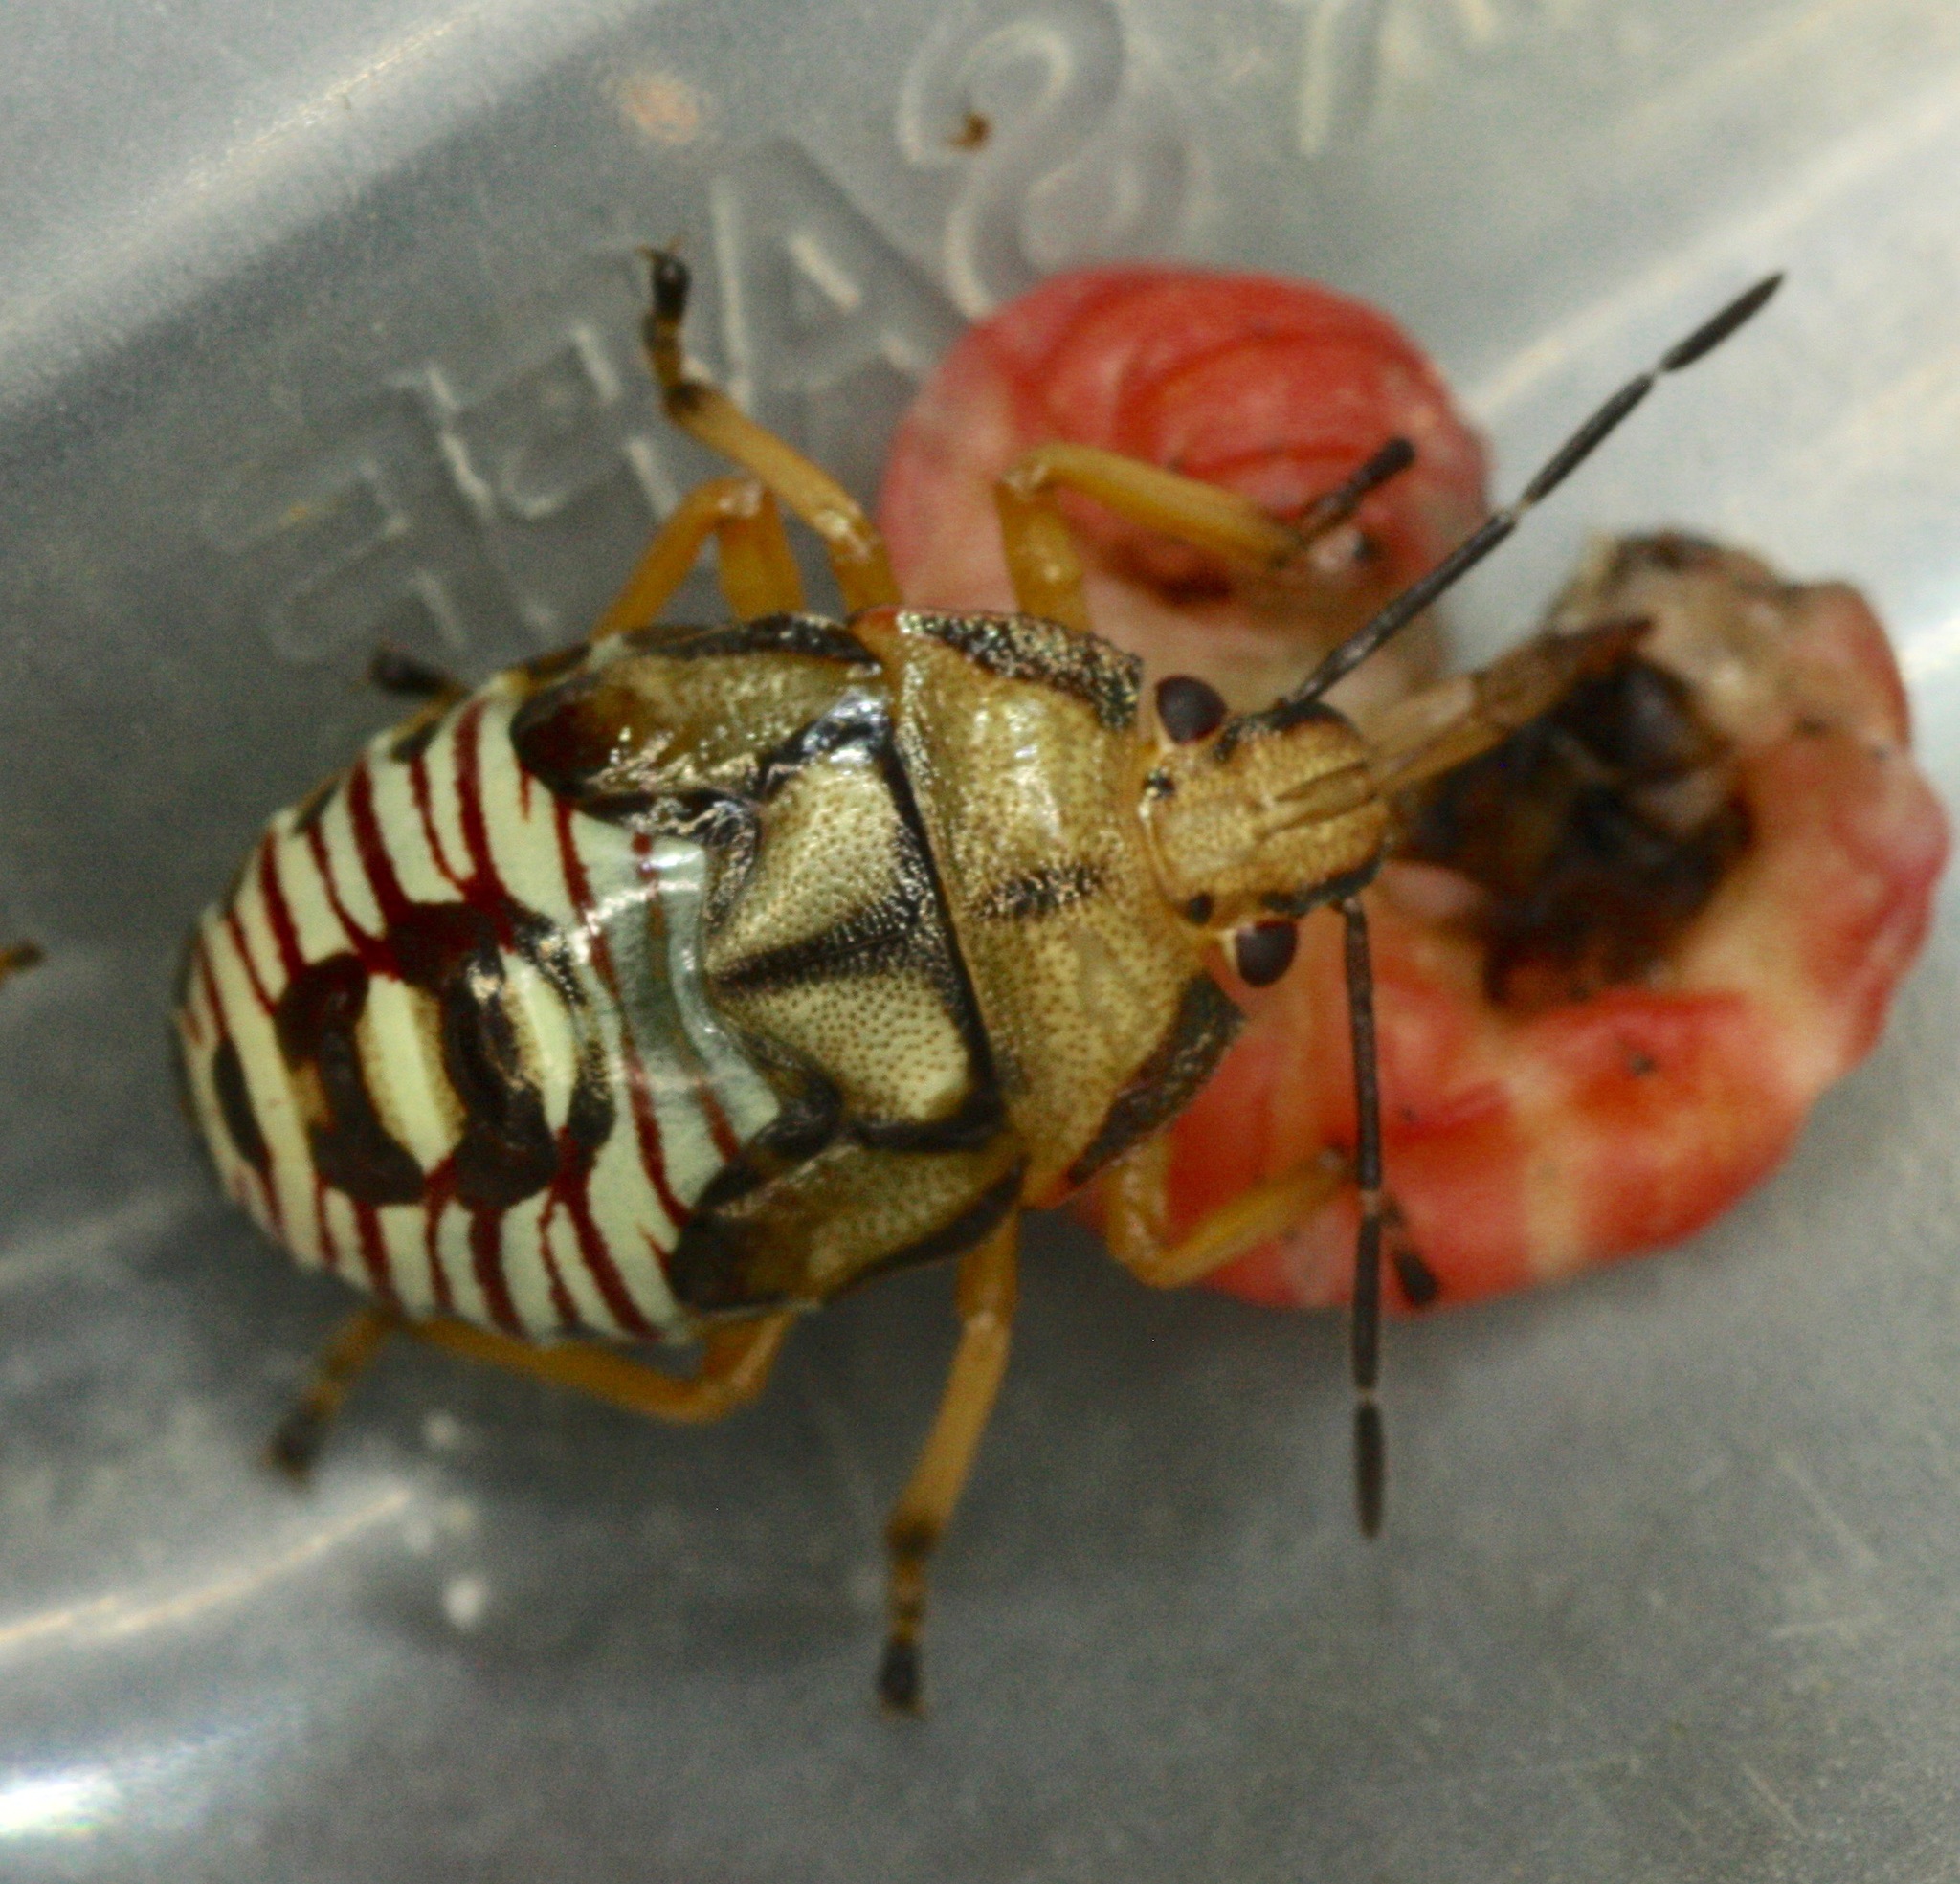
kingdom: Animalia
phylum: Arthropoda
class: Insecta
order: Hemiptera
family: Pentatomidae
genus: Podisus
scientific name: Podisus serieventris
